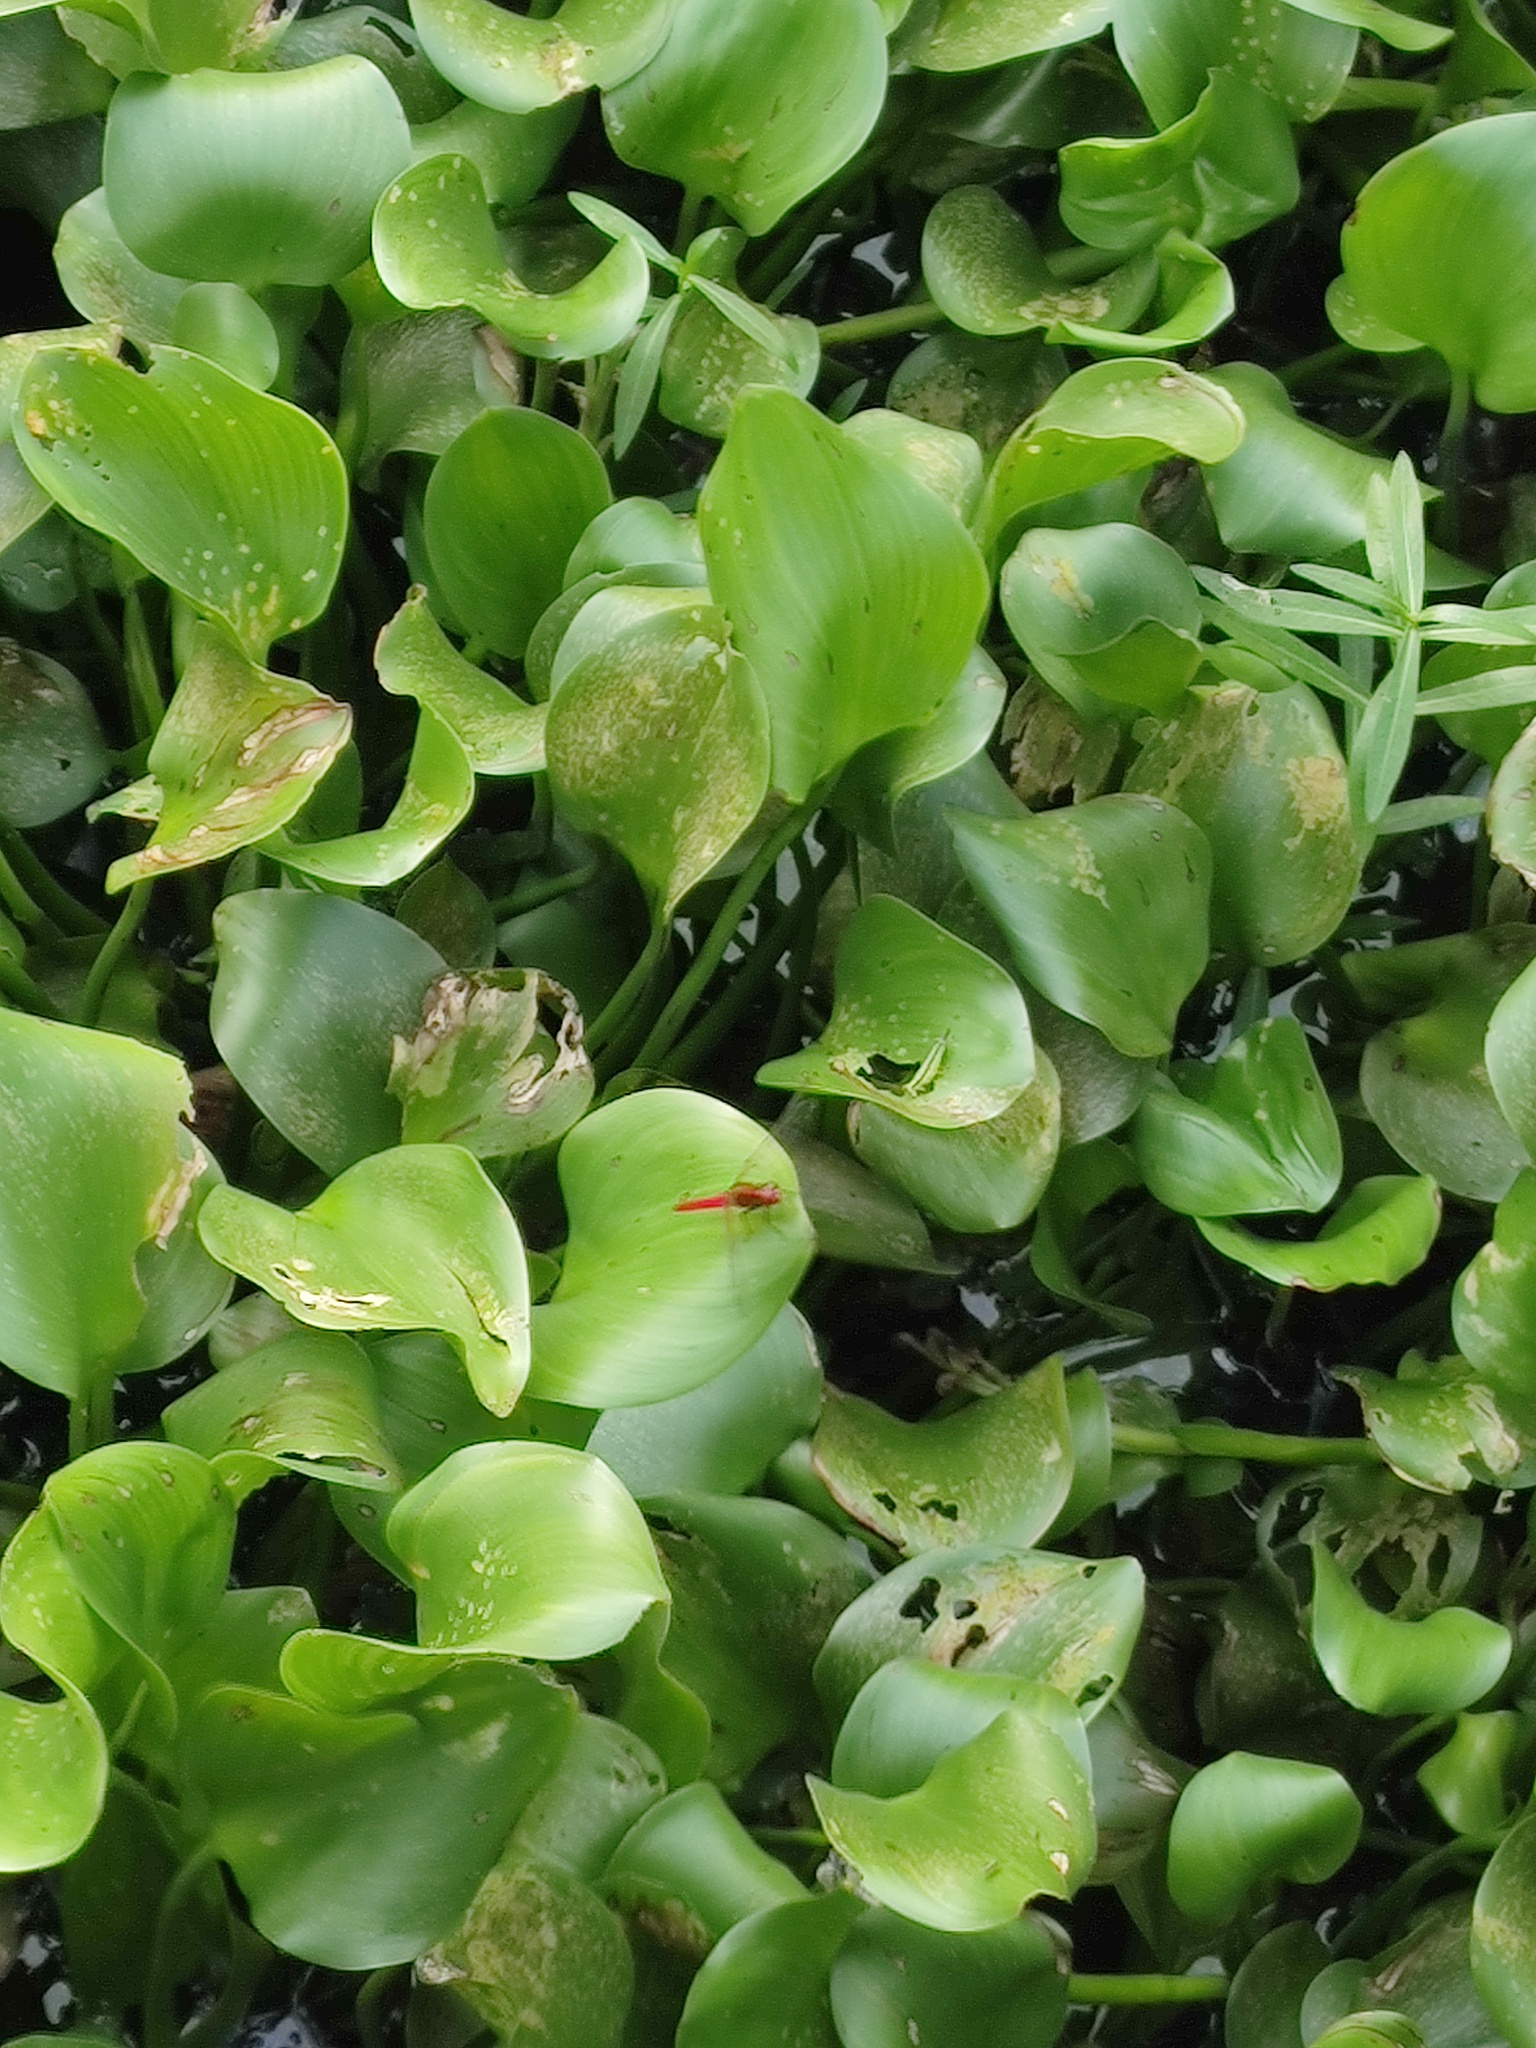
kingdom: Animalia
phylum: Arthropoda
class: Insecta
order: Odonata
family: Libellulidae
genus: Rhodothemis
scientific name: Rhodothemis rufa
